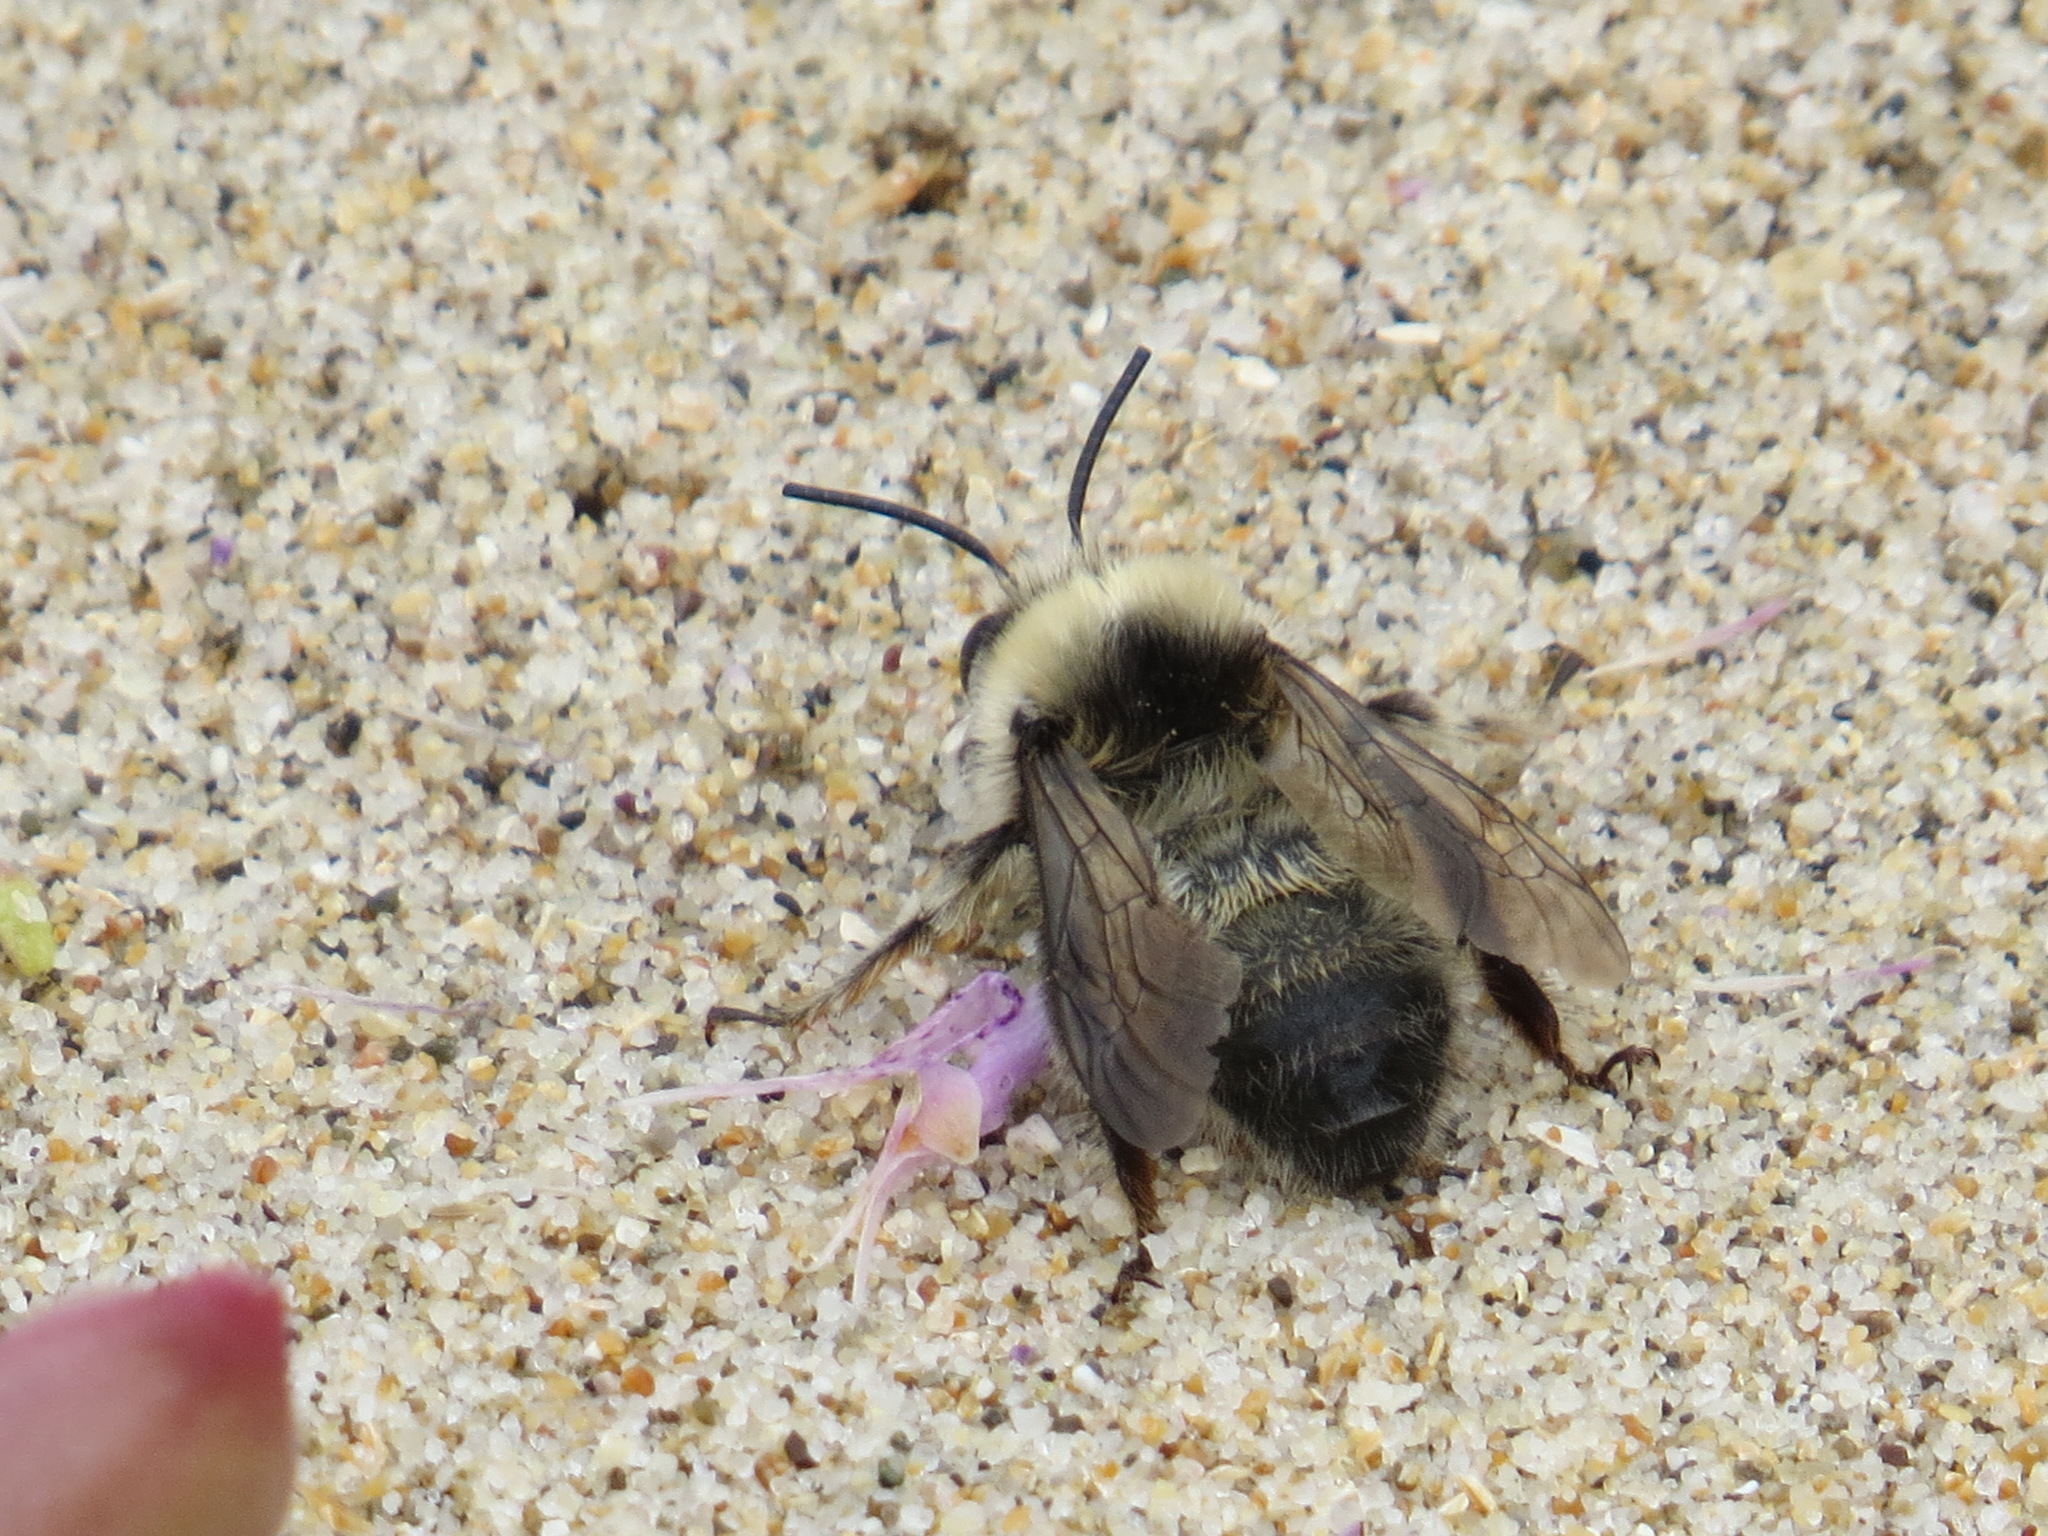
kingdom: Animalia
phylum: Arthropoda
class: Insecta
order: Hymenoptera
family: Apidae
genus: Anthophora
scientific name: Anthophora bomboides
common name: Bumble-bee-mimic digger bee
